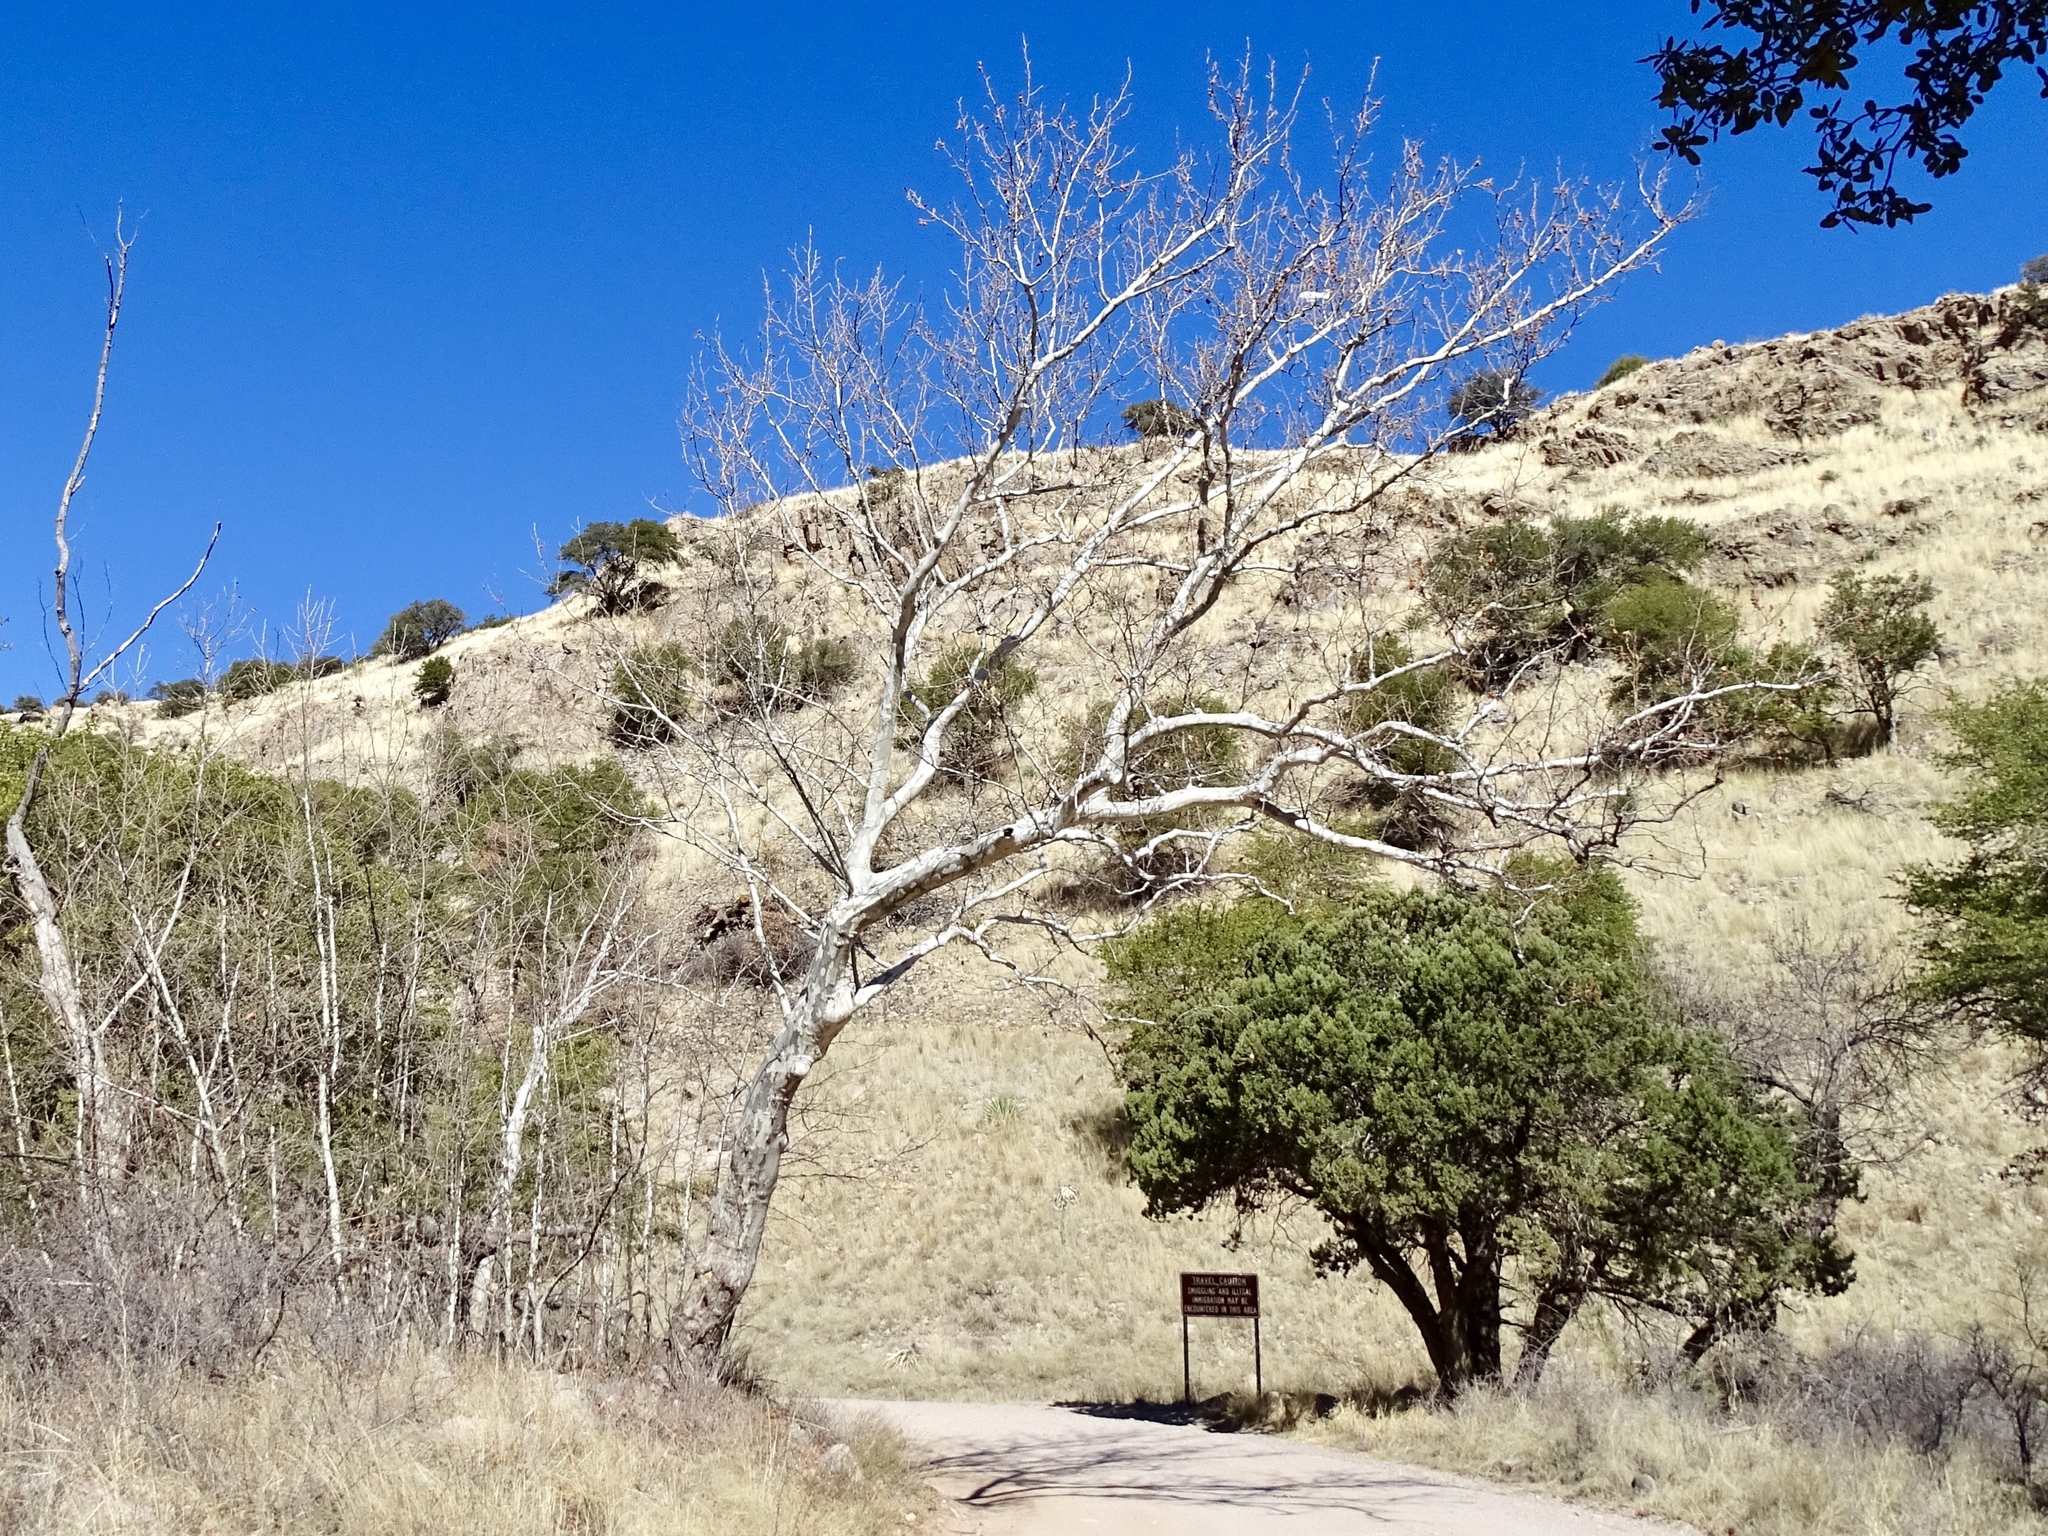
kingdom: Plantae
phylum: Tracheophyta
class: Magnoliopsida
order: Proteales
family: Platanaceae
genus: Platanus
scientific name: Platanus wrightii
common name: Arizona sycamore
